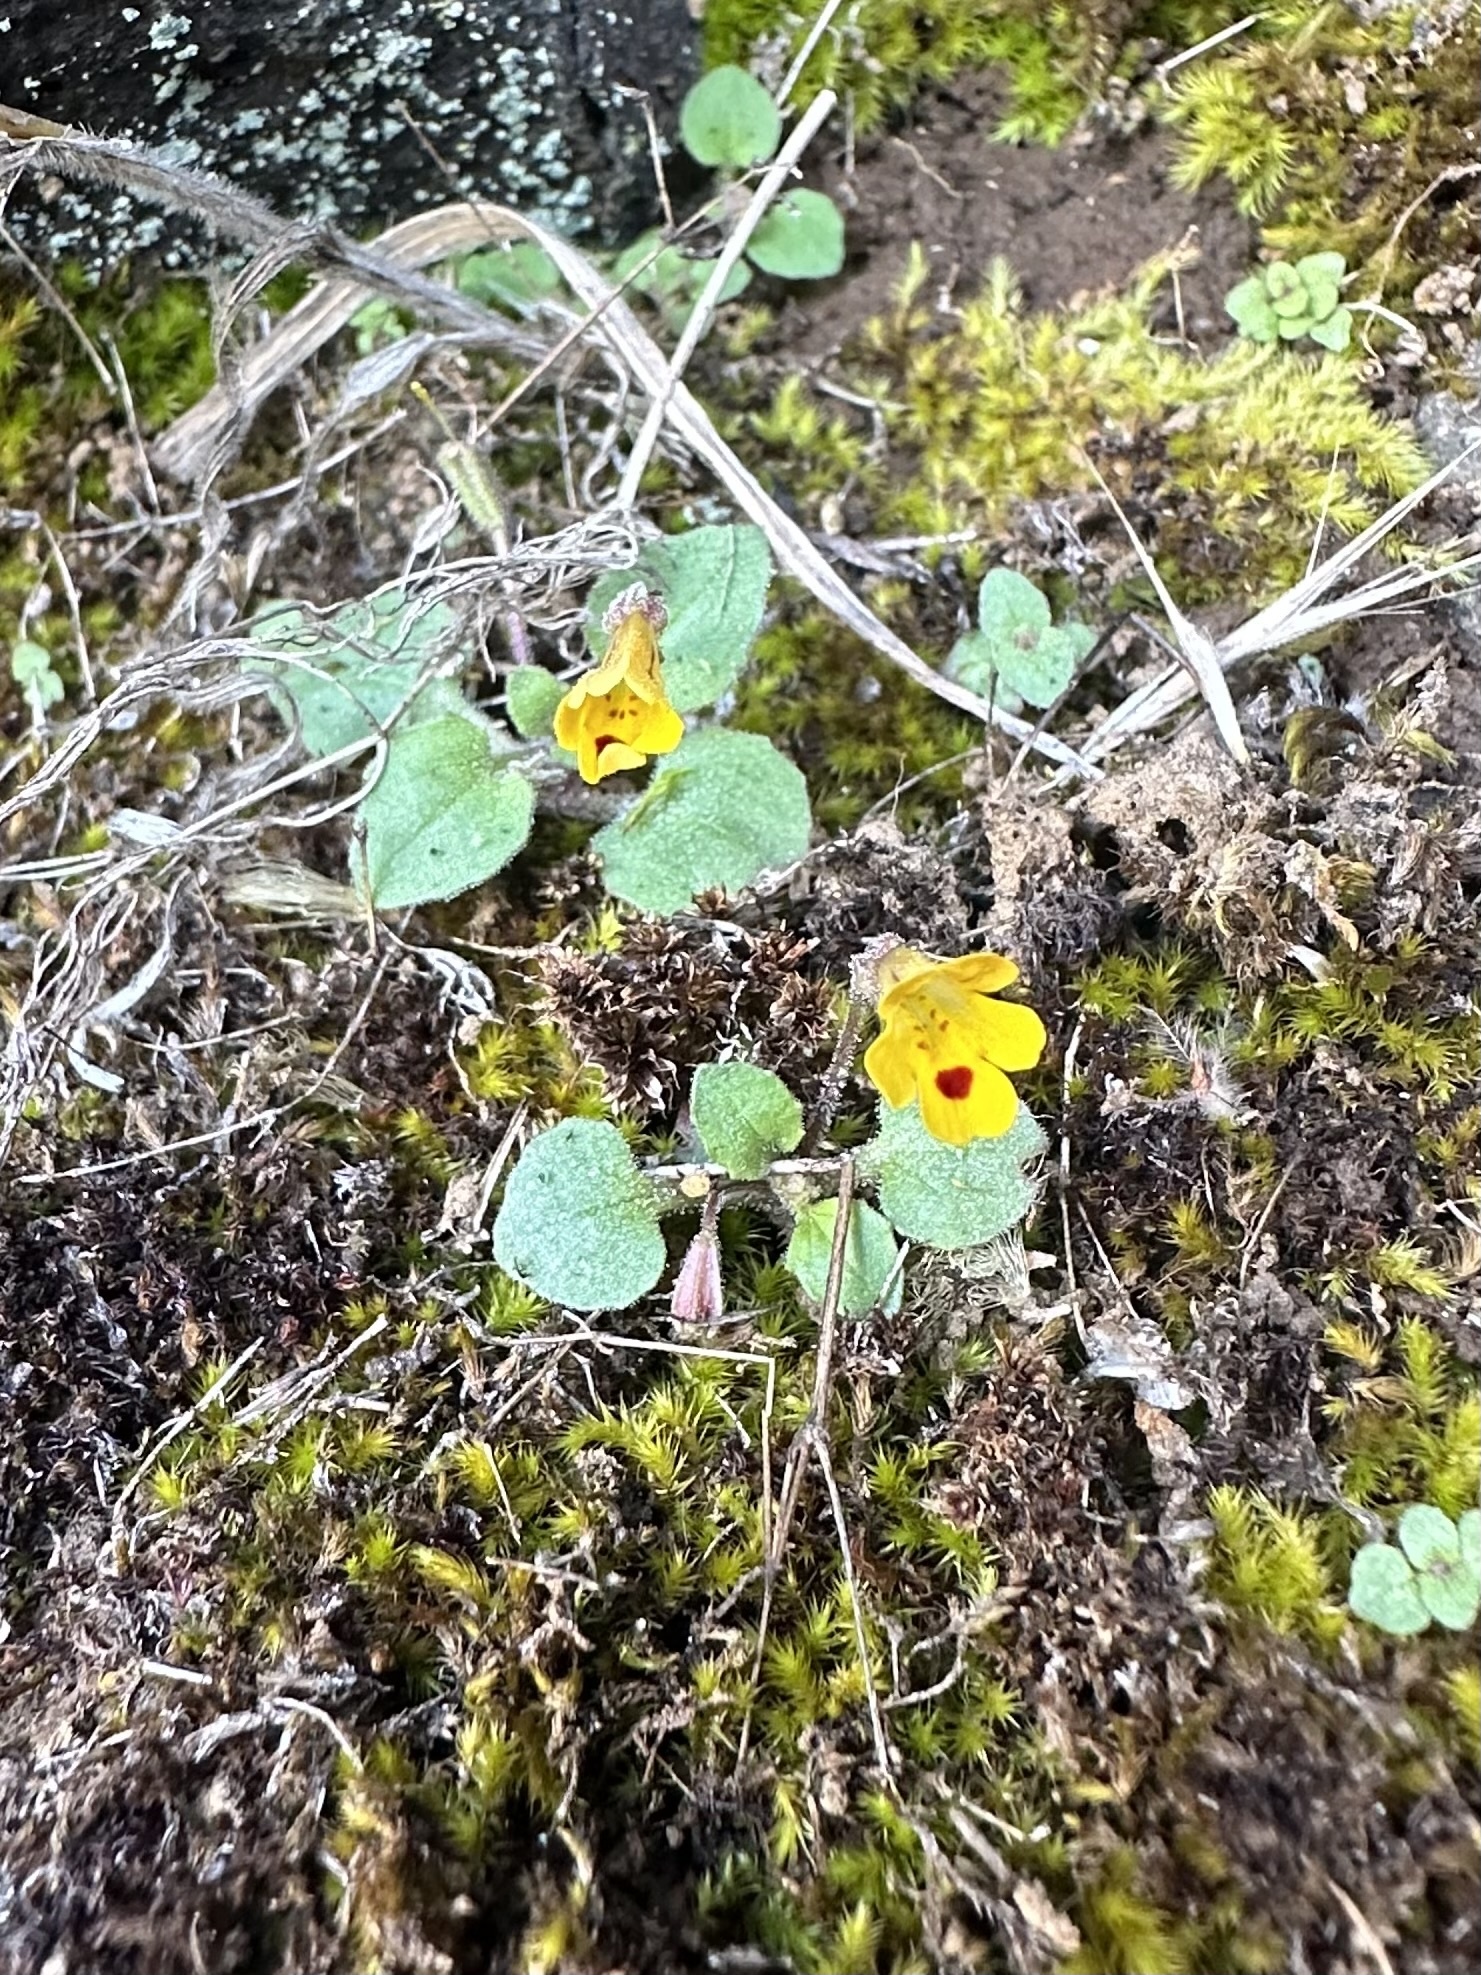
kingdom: Plantae
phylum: Tracheophyta
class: Magnoliopsida
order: Lamiales
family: Phrymaceae
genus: Erythranthe
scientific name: Erythranthe alsinoides
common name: Chickweed monkeyflower
